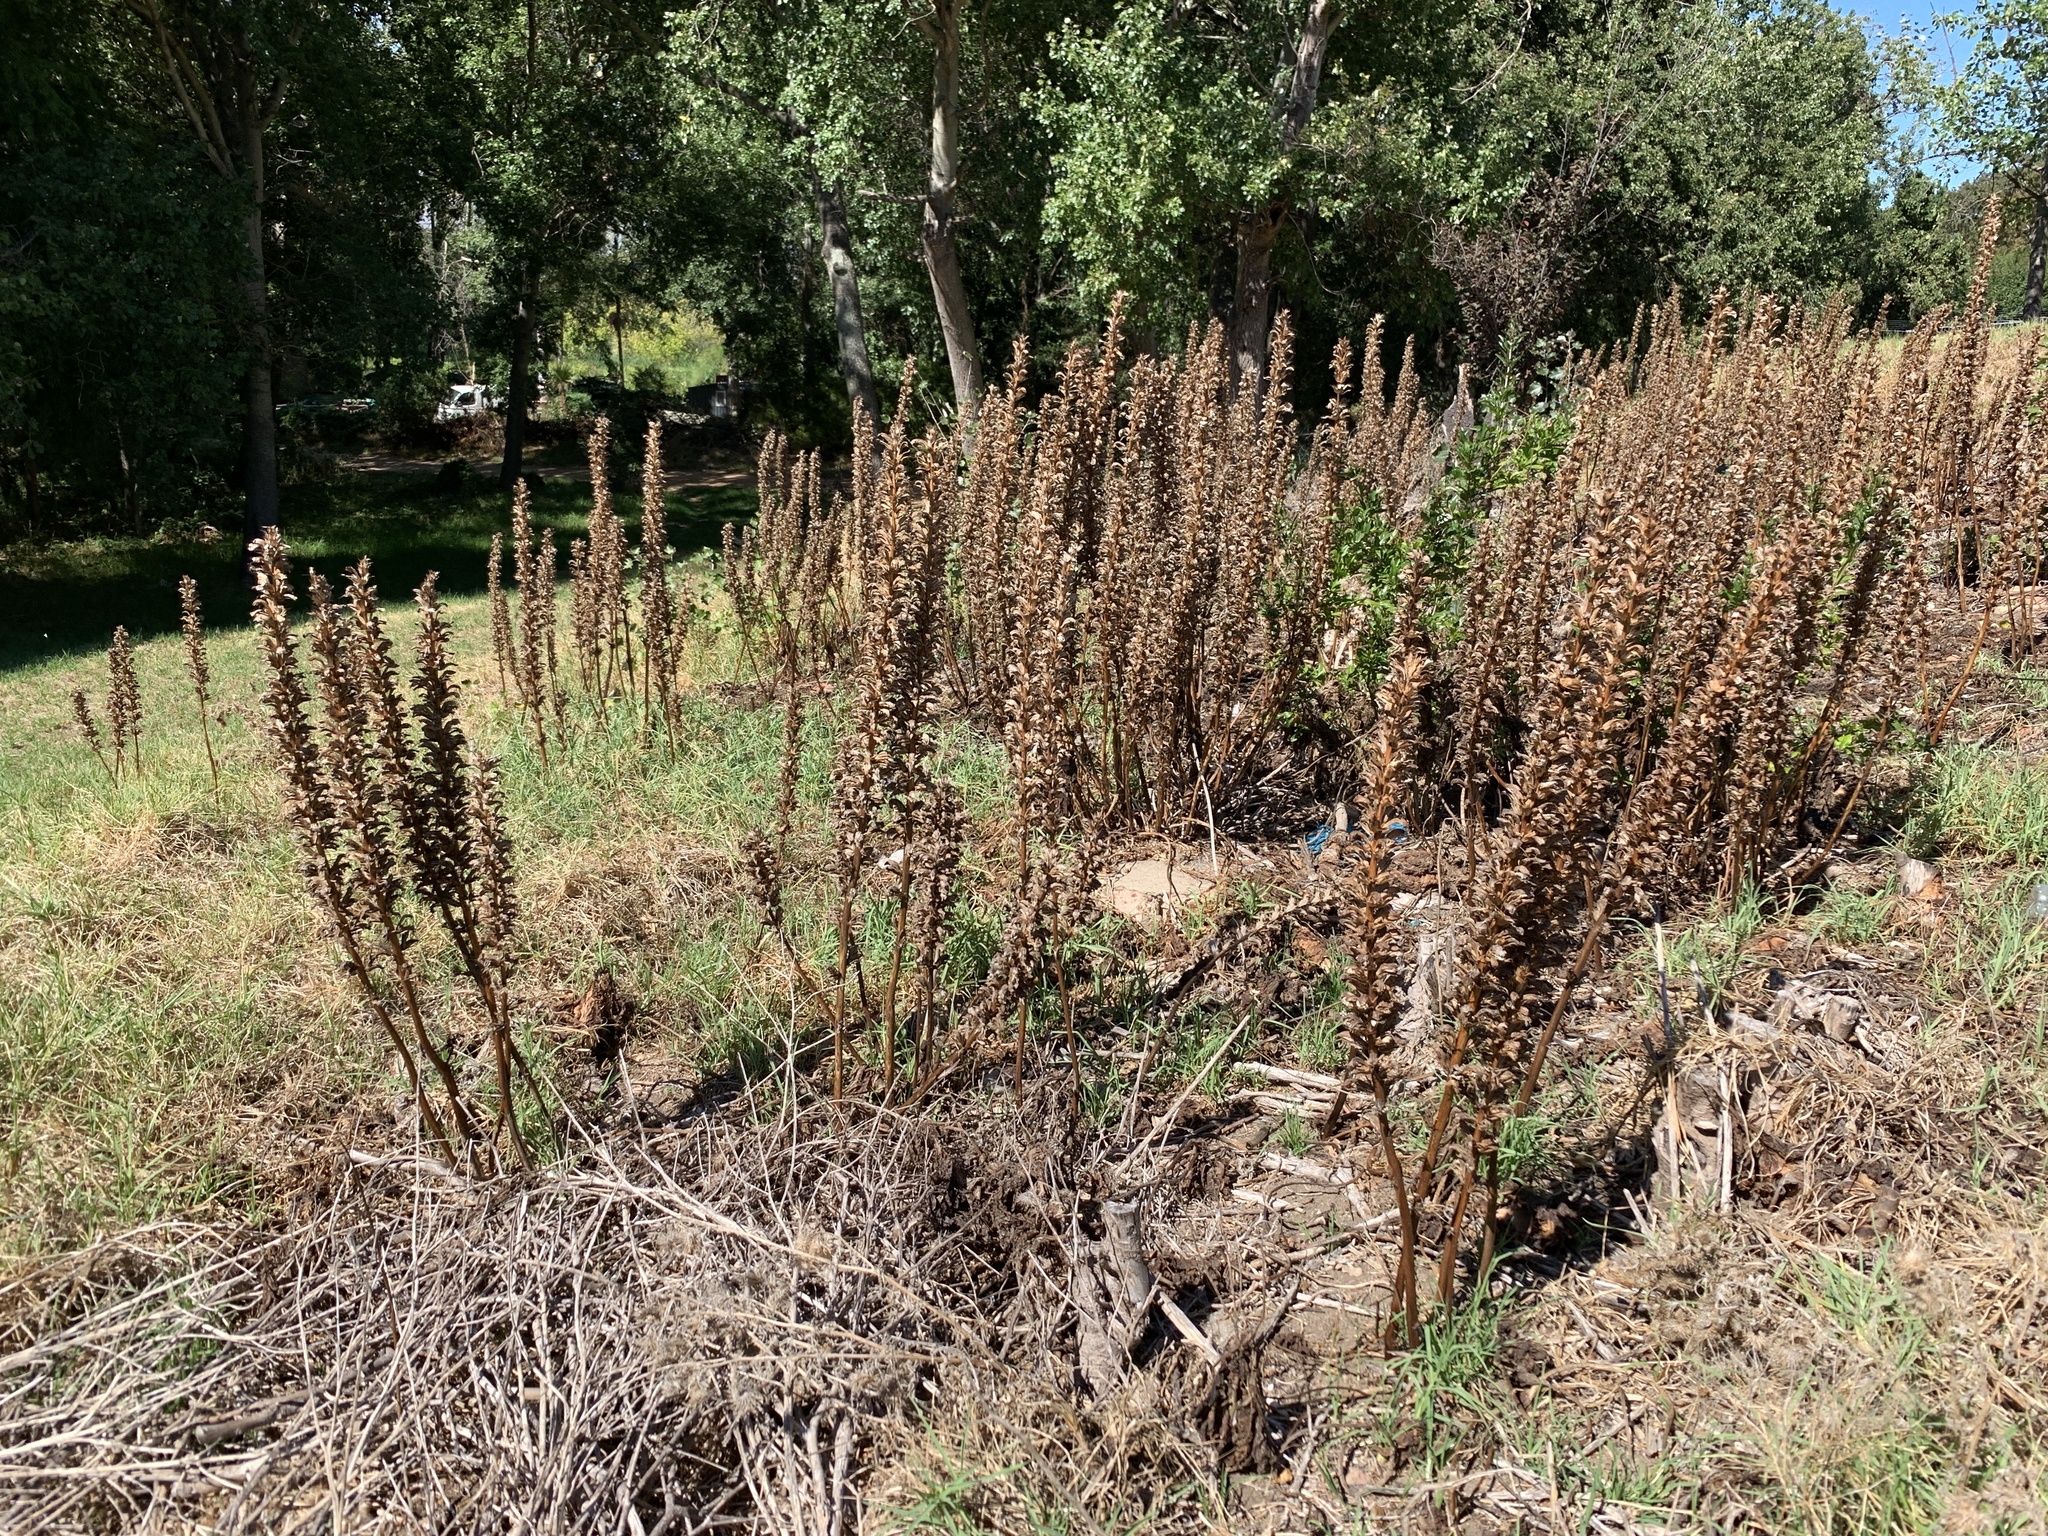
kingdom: Plantae
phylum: Tracheophyta
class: Magnoliopsida
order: Lamiales
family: Acanthaceae
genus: Acanthus
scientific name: Acanthus mollis
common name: Bear's-breech
